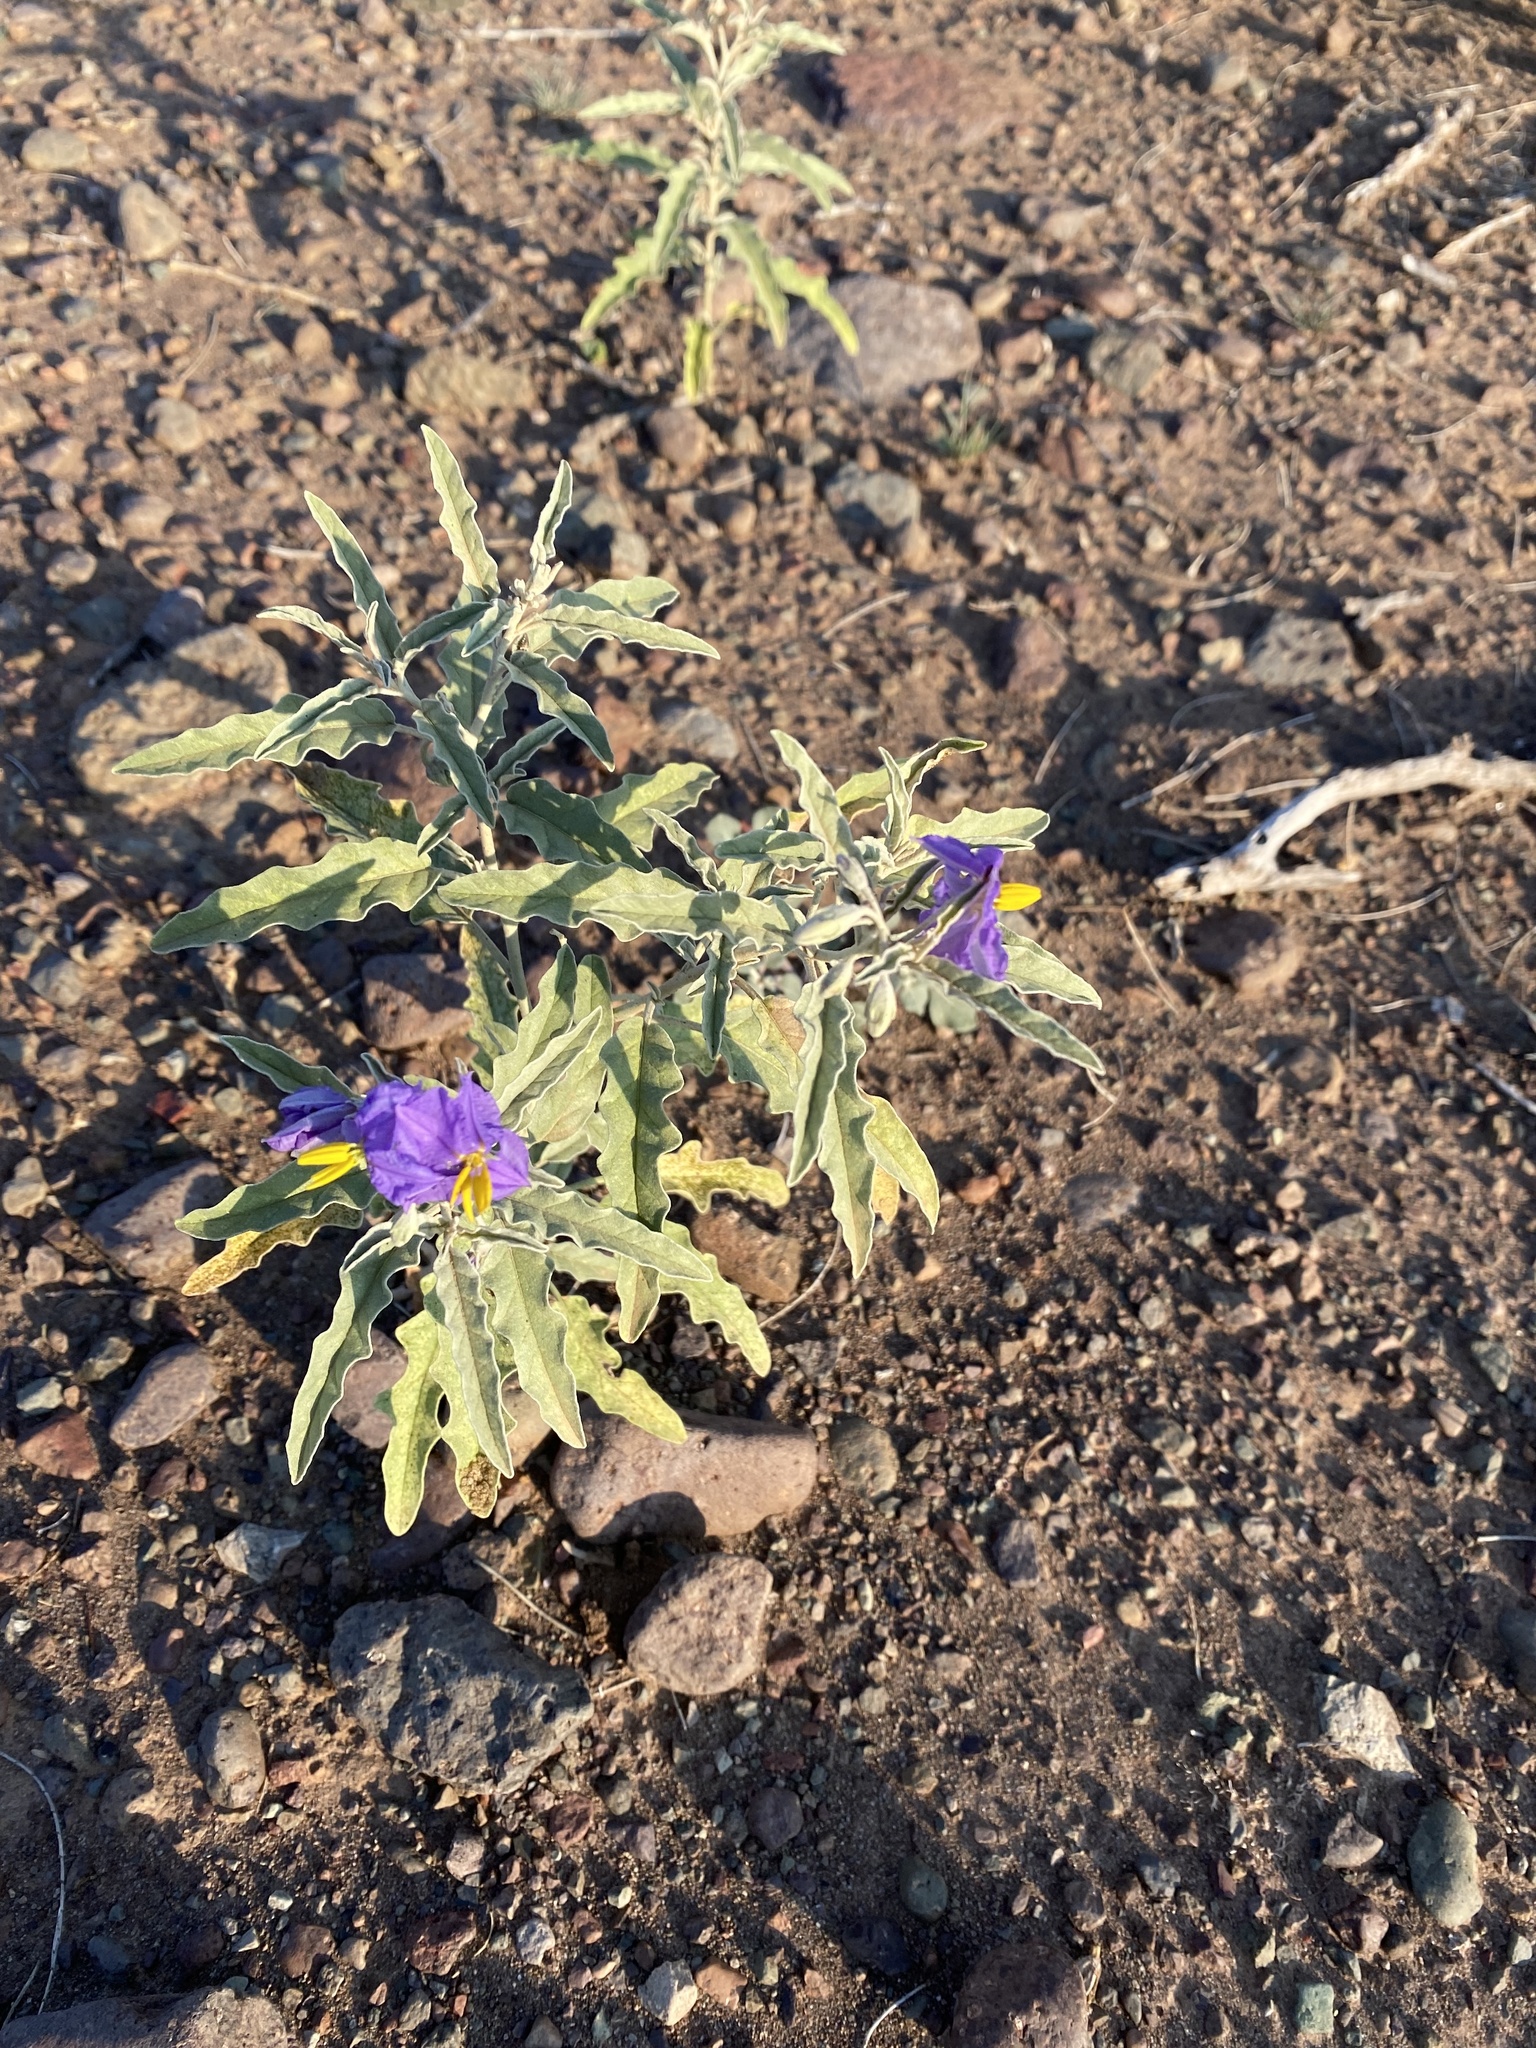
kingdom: Plantae
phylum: Tracheophyta
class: Magnoliopsida
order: Solanales
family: Solanaceae
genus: Solanum
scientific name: Solanum elaeagnifolium
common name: Silverleaf nightshade
